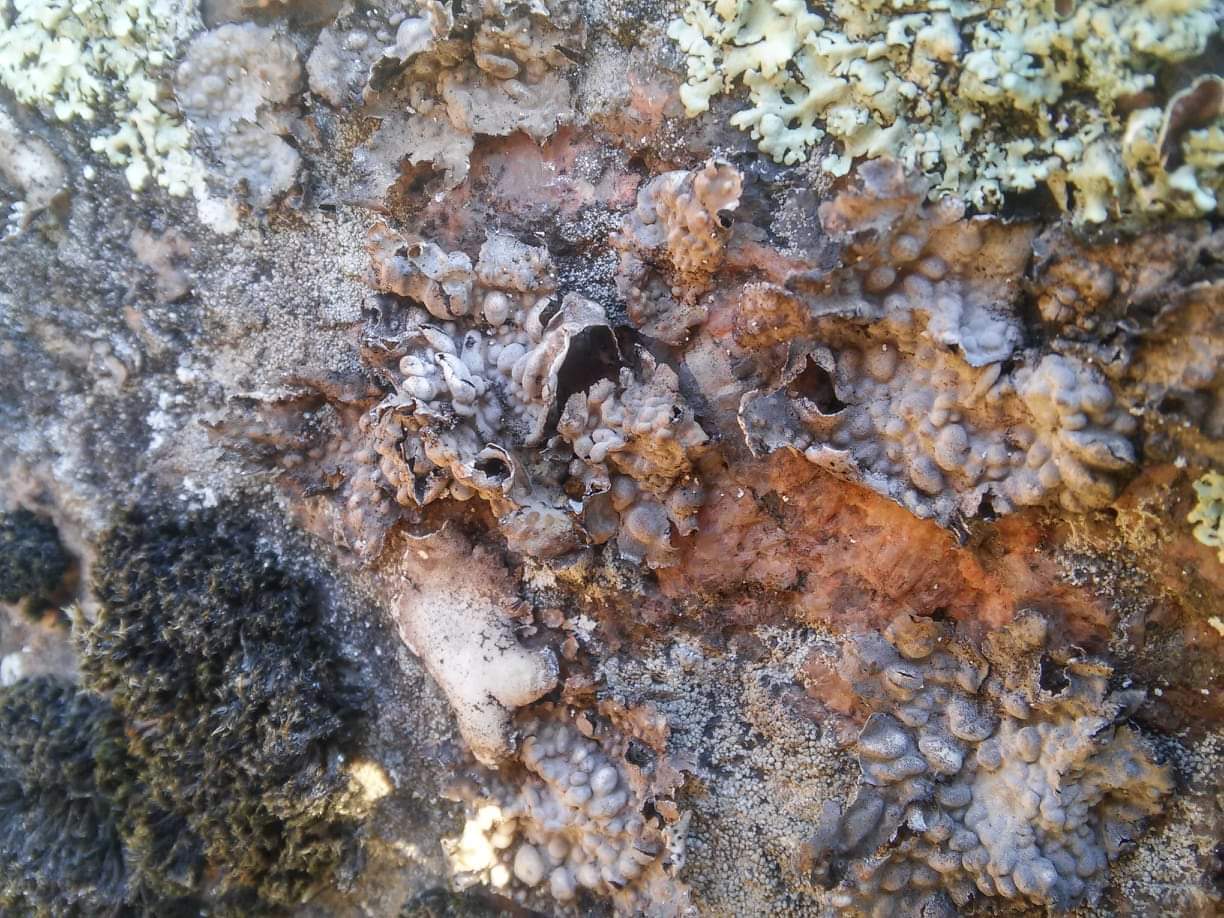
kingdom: Fungi
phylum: Ascomycota
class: Lecanoromycetes
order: Umbilicariales
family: Umbilicariaceae
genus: Lasallia
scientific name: Lasallia pustulata
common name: Blistered toadskin lichen
